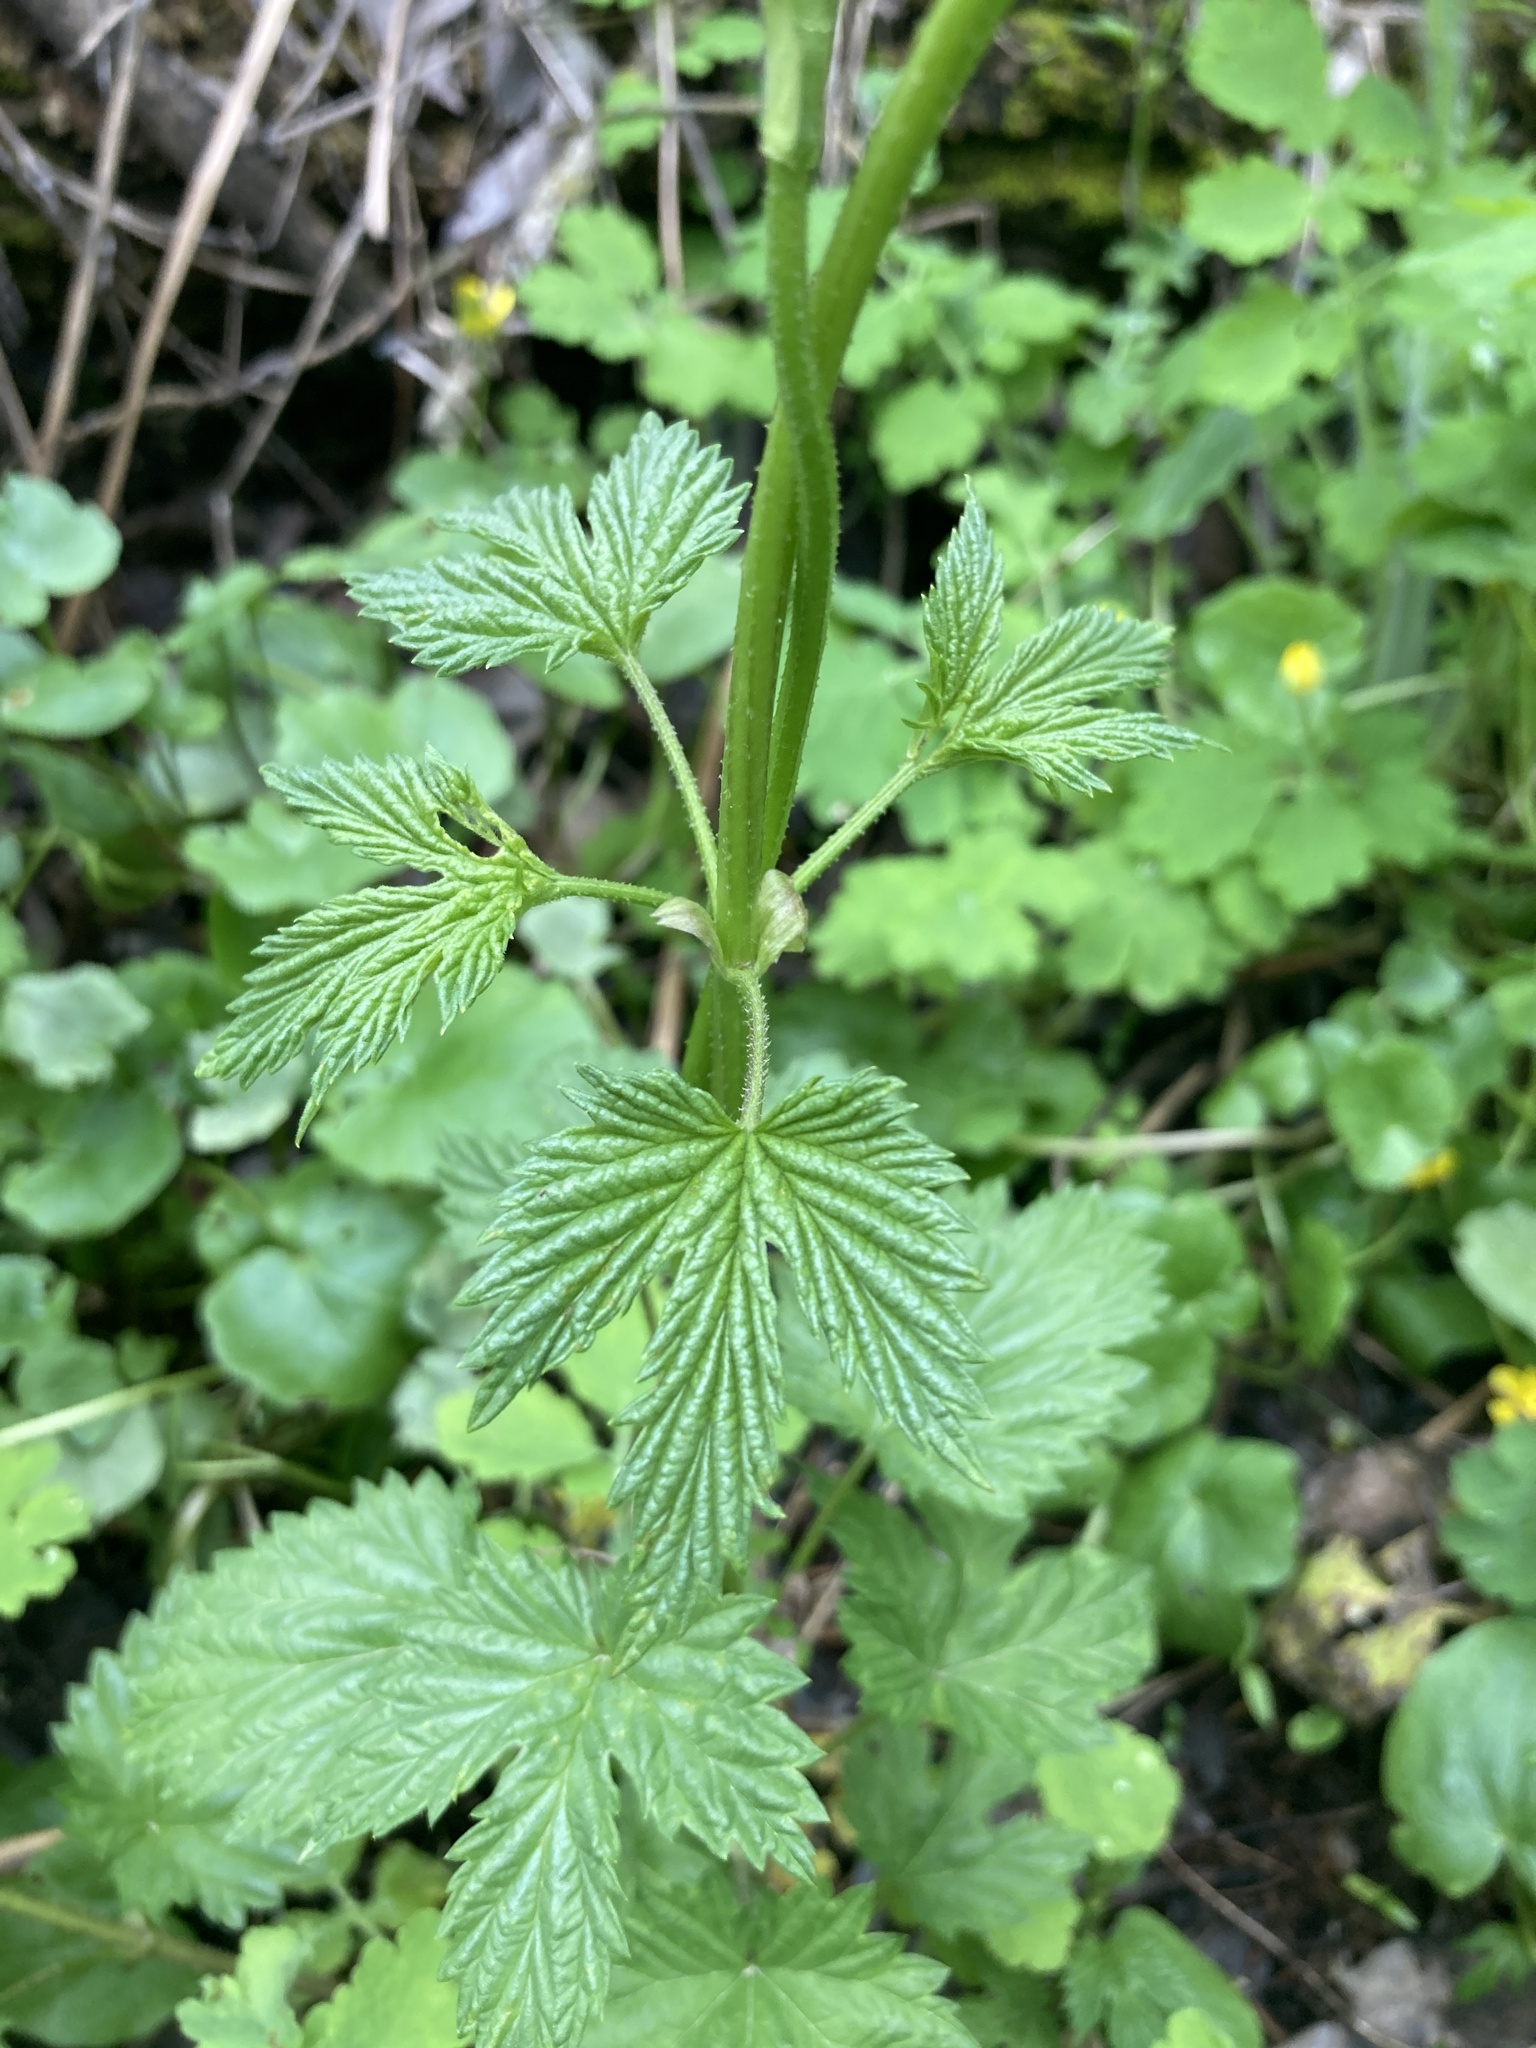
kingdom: Plantae
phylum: Tracheophyta
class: Magnoliopsida
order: Rosales
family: Cannabaceae
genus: Humulus
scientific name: Humulus lupulus
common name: Hop
